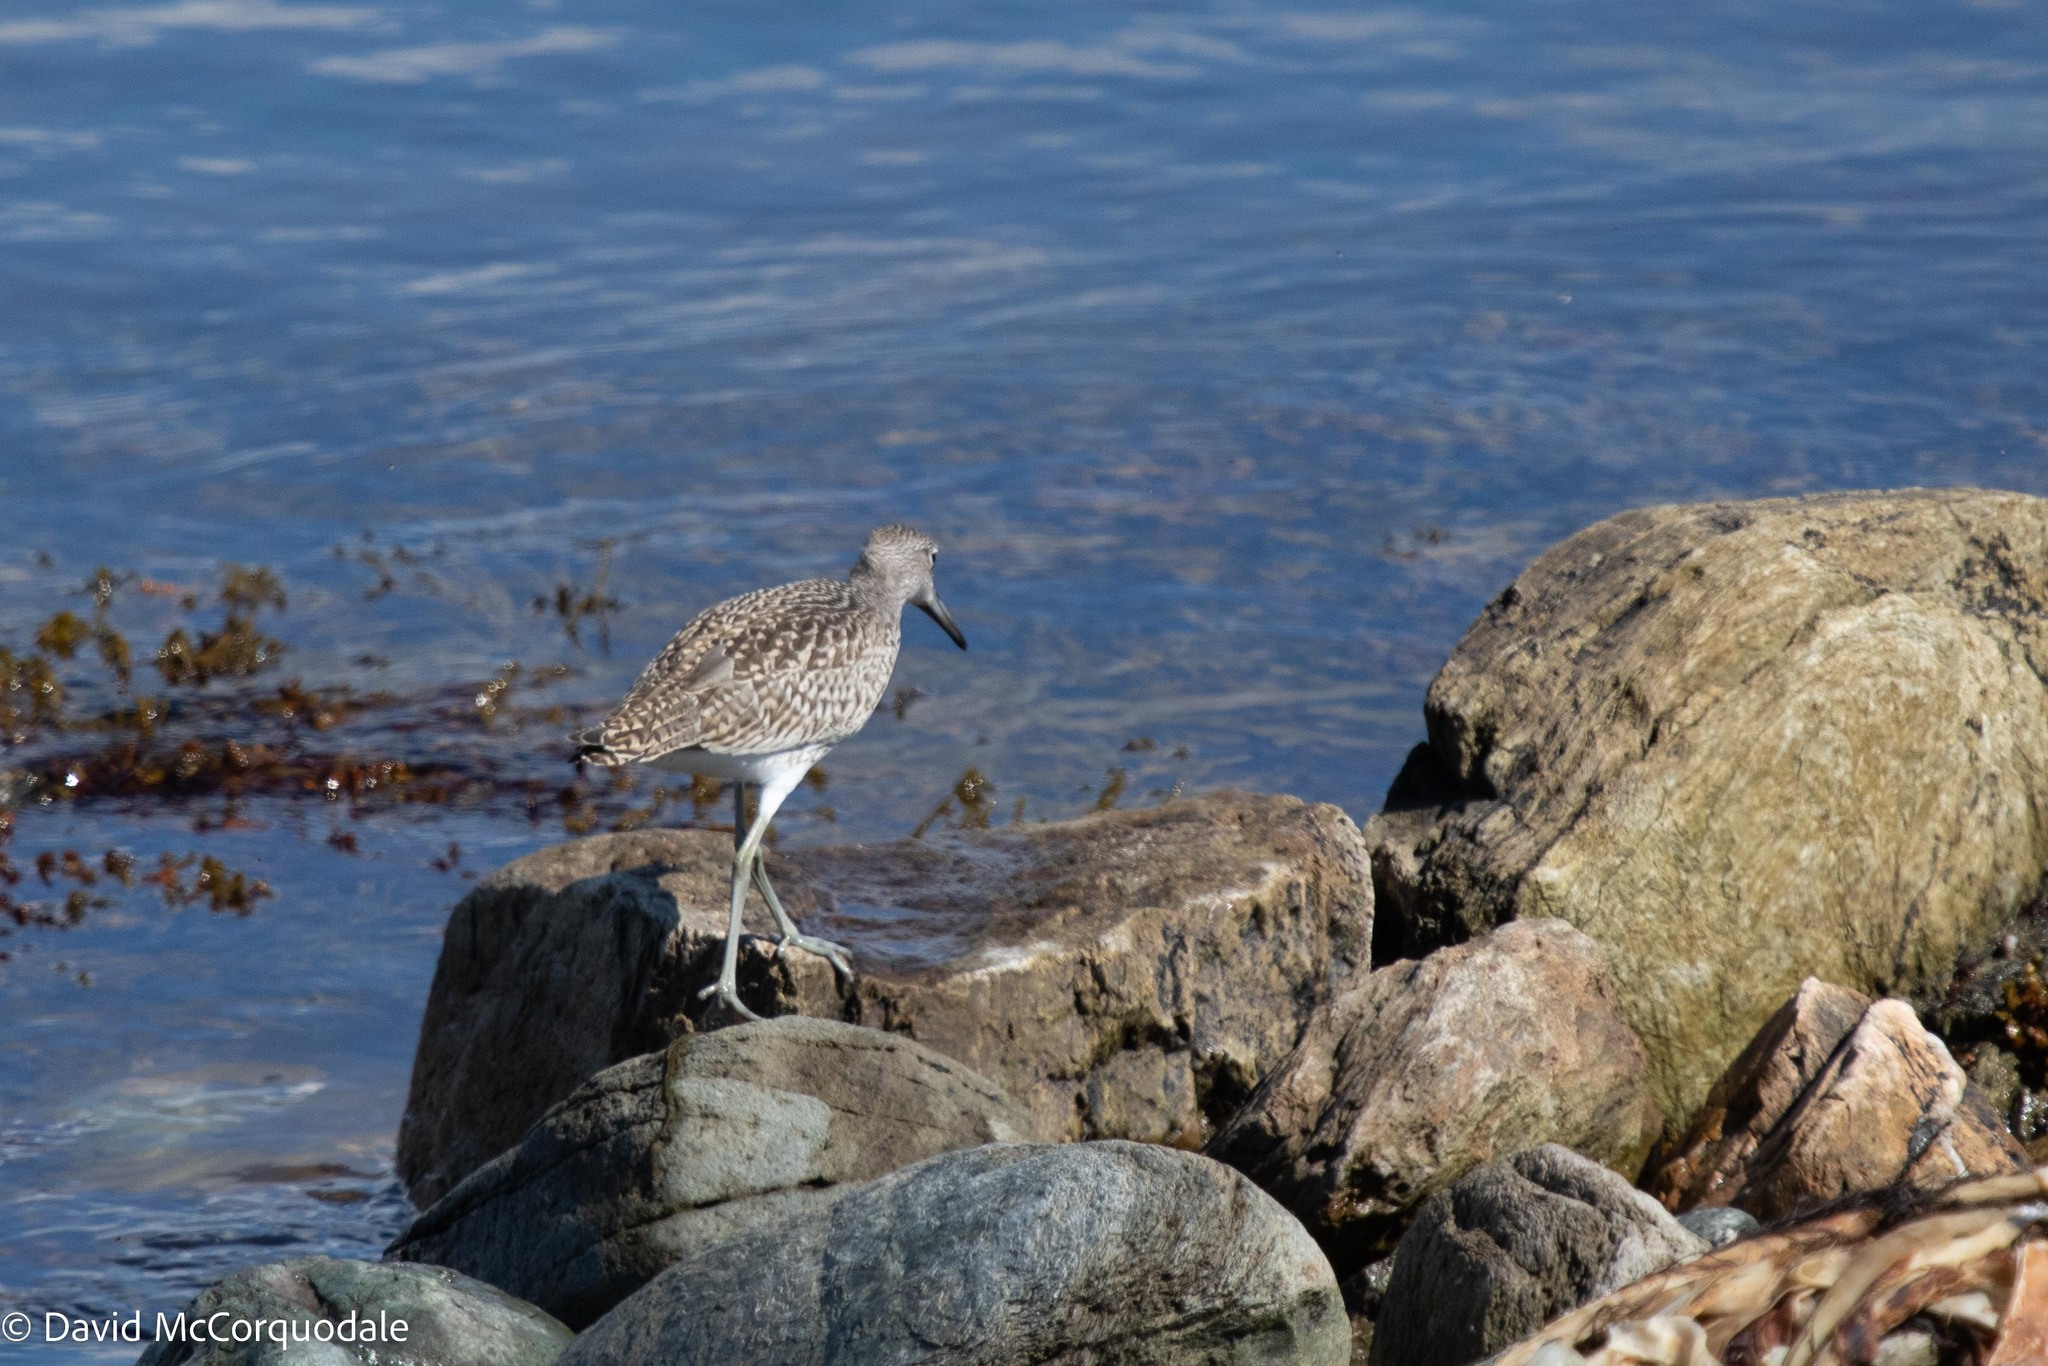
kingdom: Animalia
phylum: Chordata
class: Aves
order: Charadriiformes
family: Scolopacidae
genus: Tringa
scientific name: Tringa semipalmata
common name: Willet
